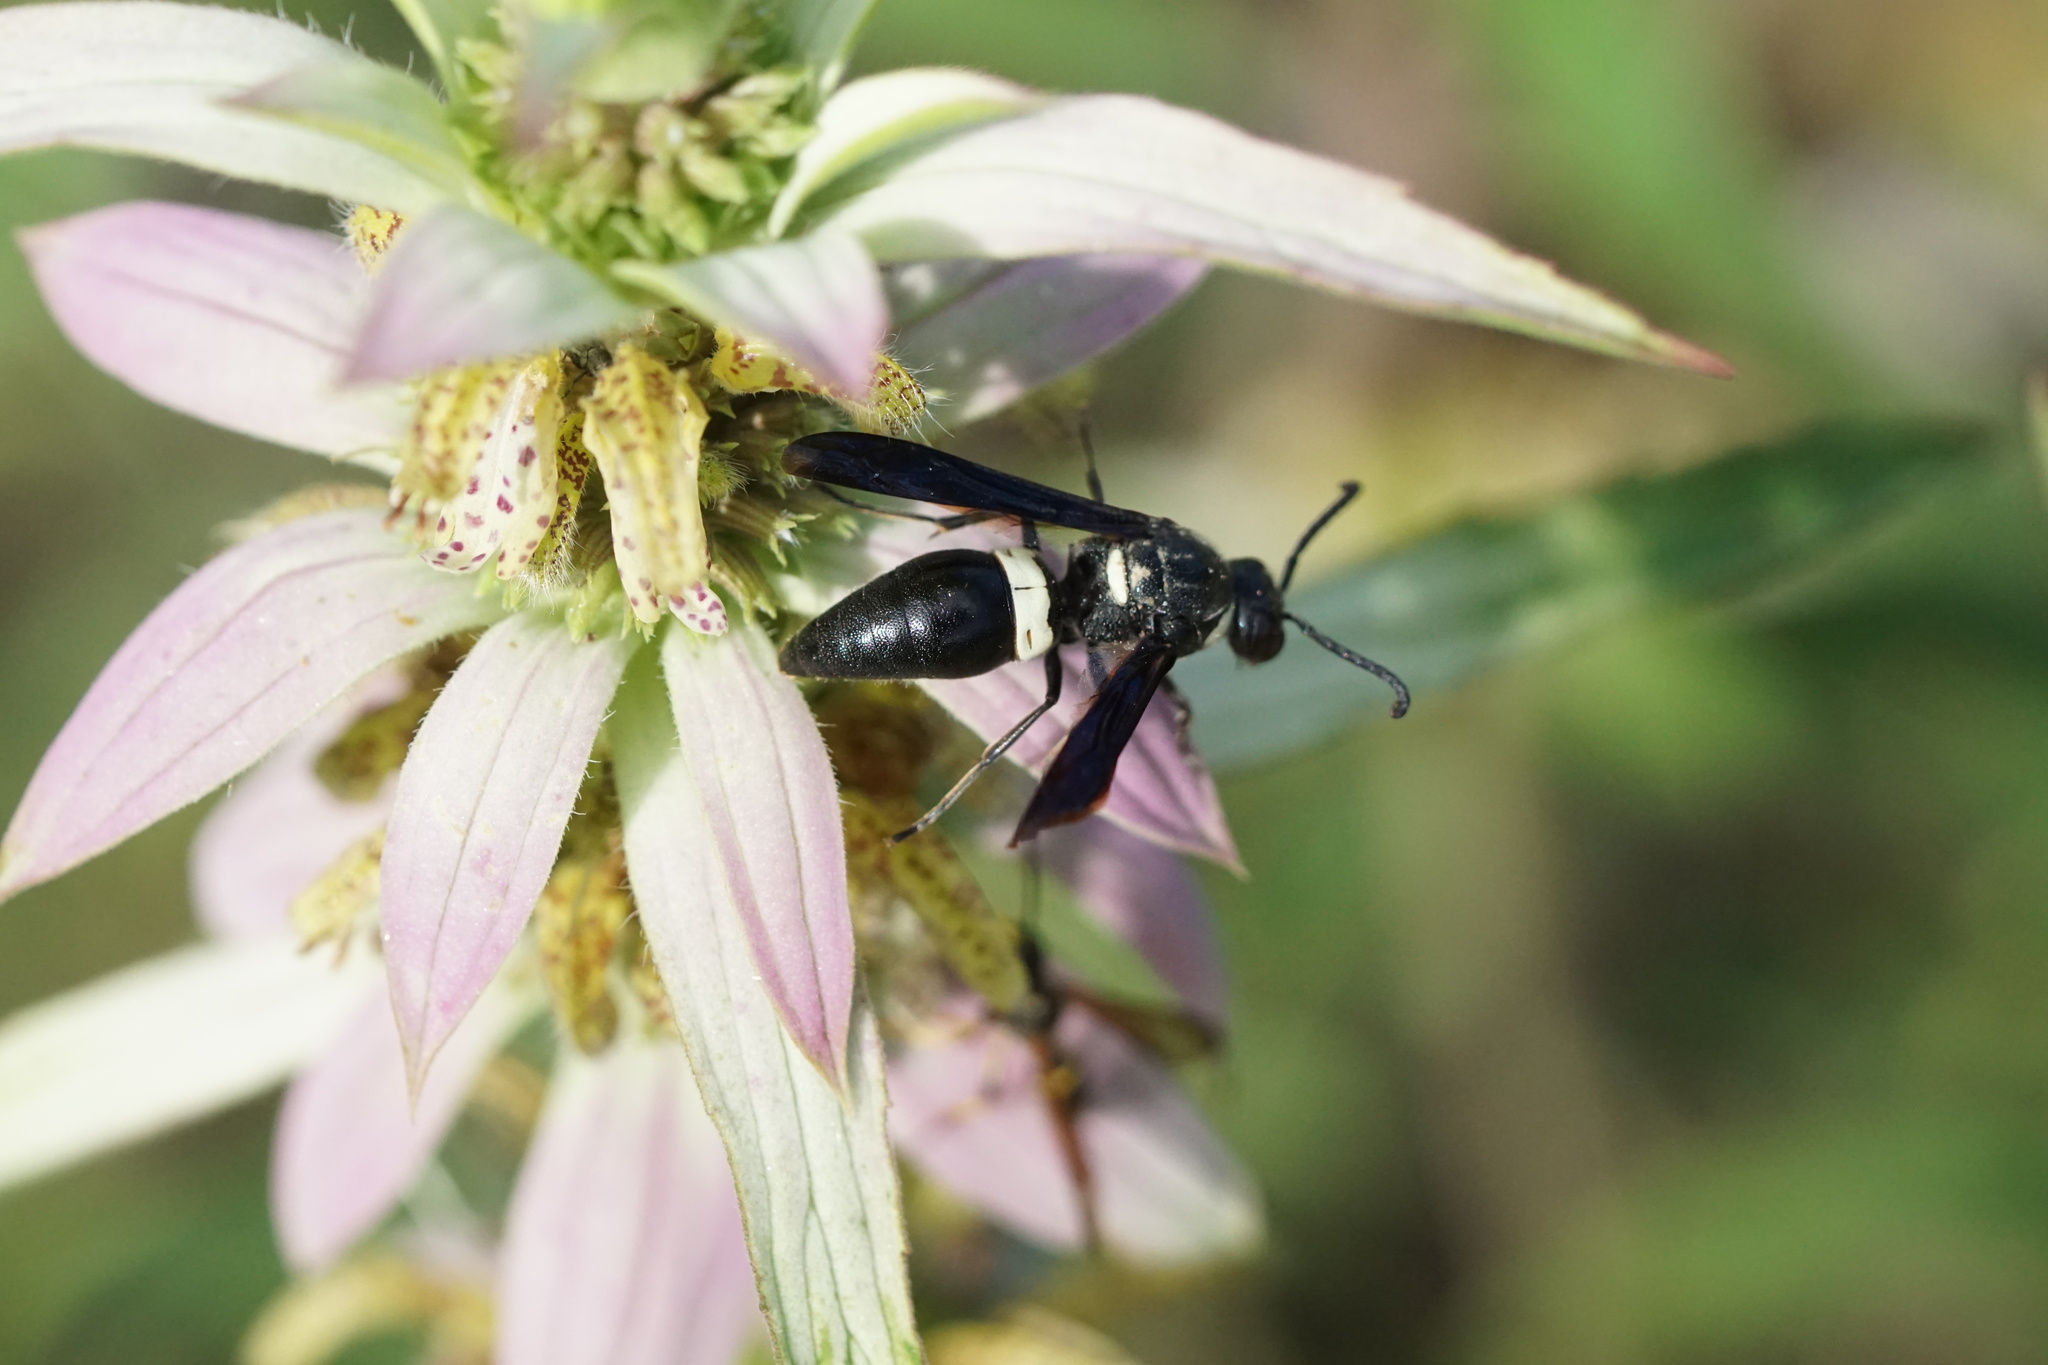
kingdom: Animalia
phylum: Arthropoda
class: Insecta
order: Hymenoptera
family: Eumenidae
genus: Monobia
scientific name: Monobia quadridens
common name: Four-toothed mason wasp
